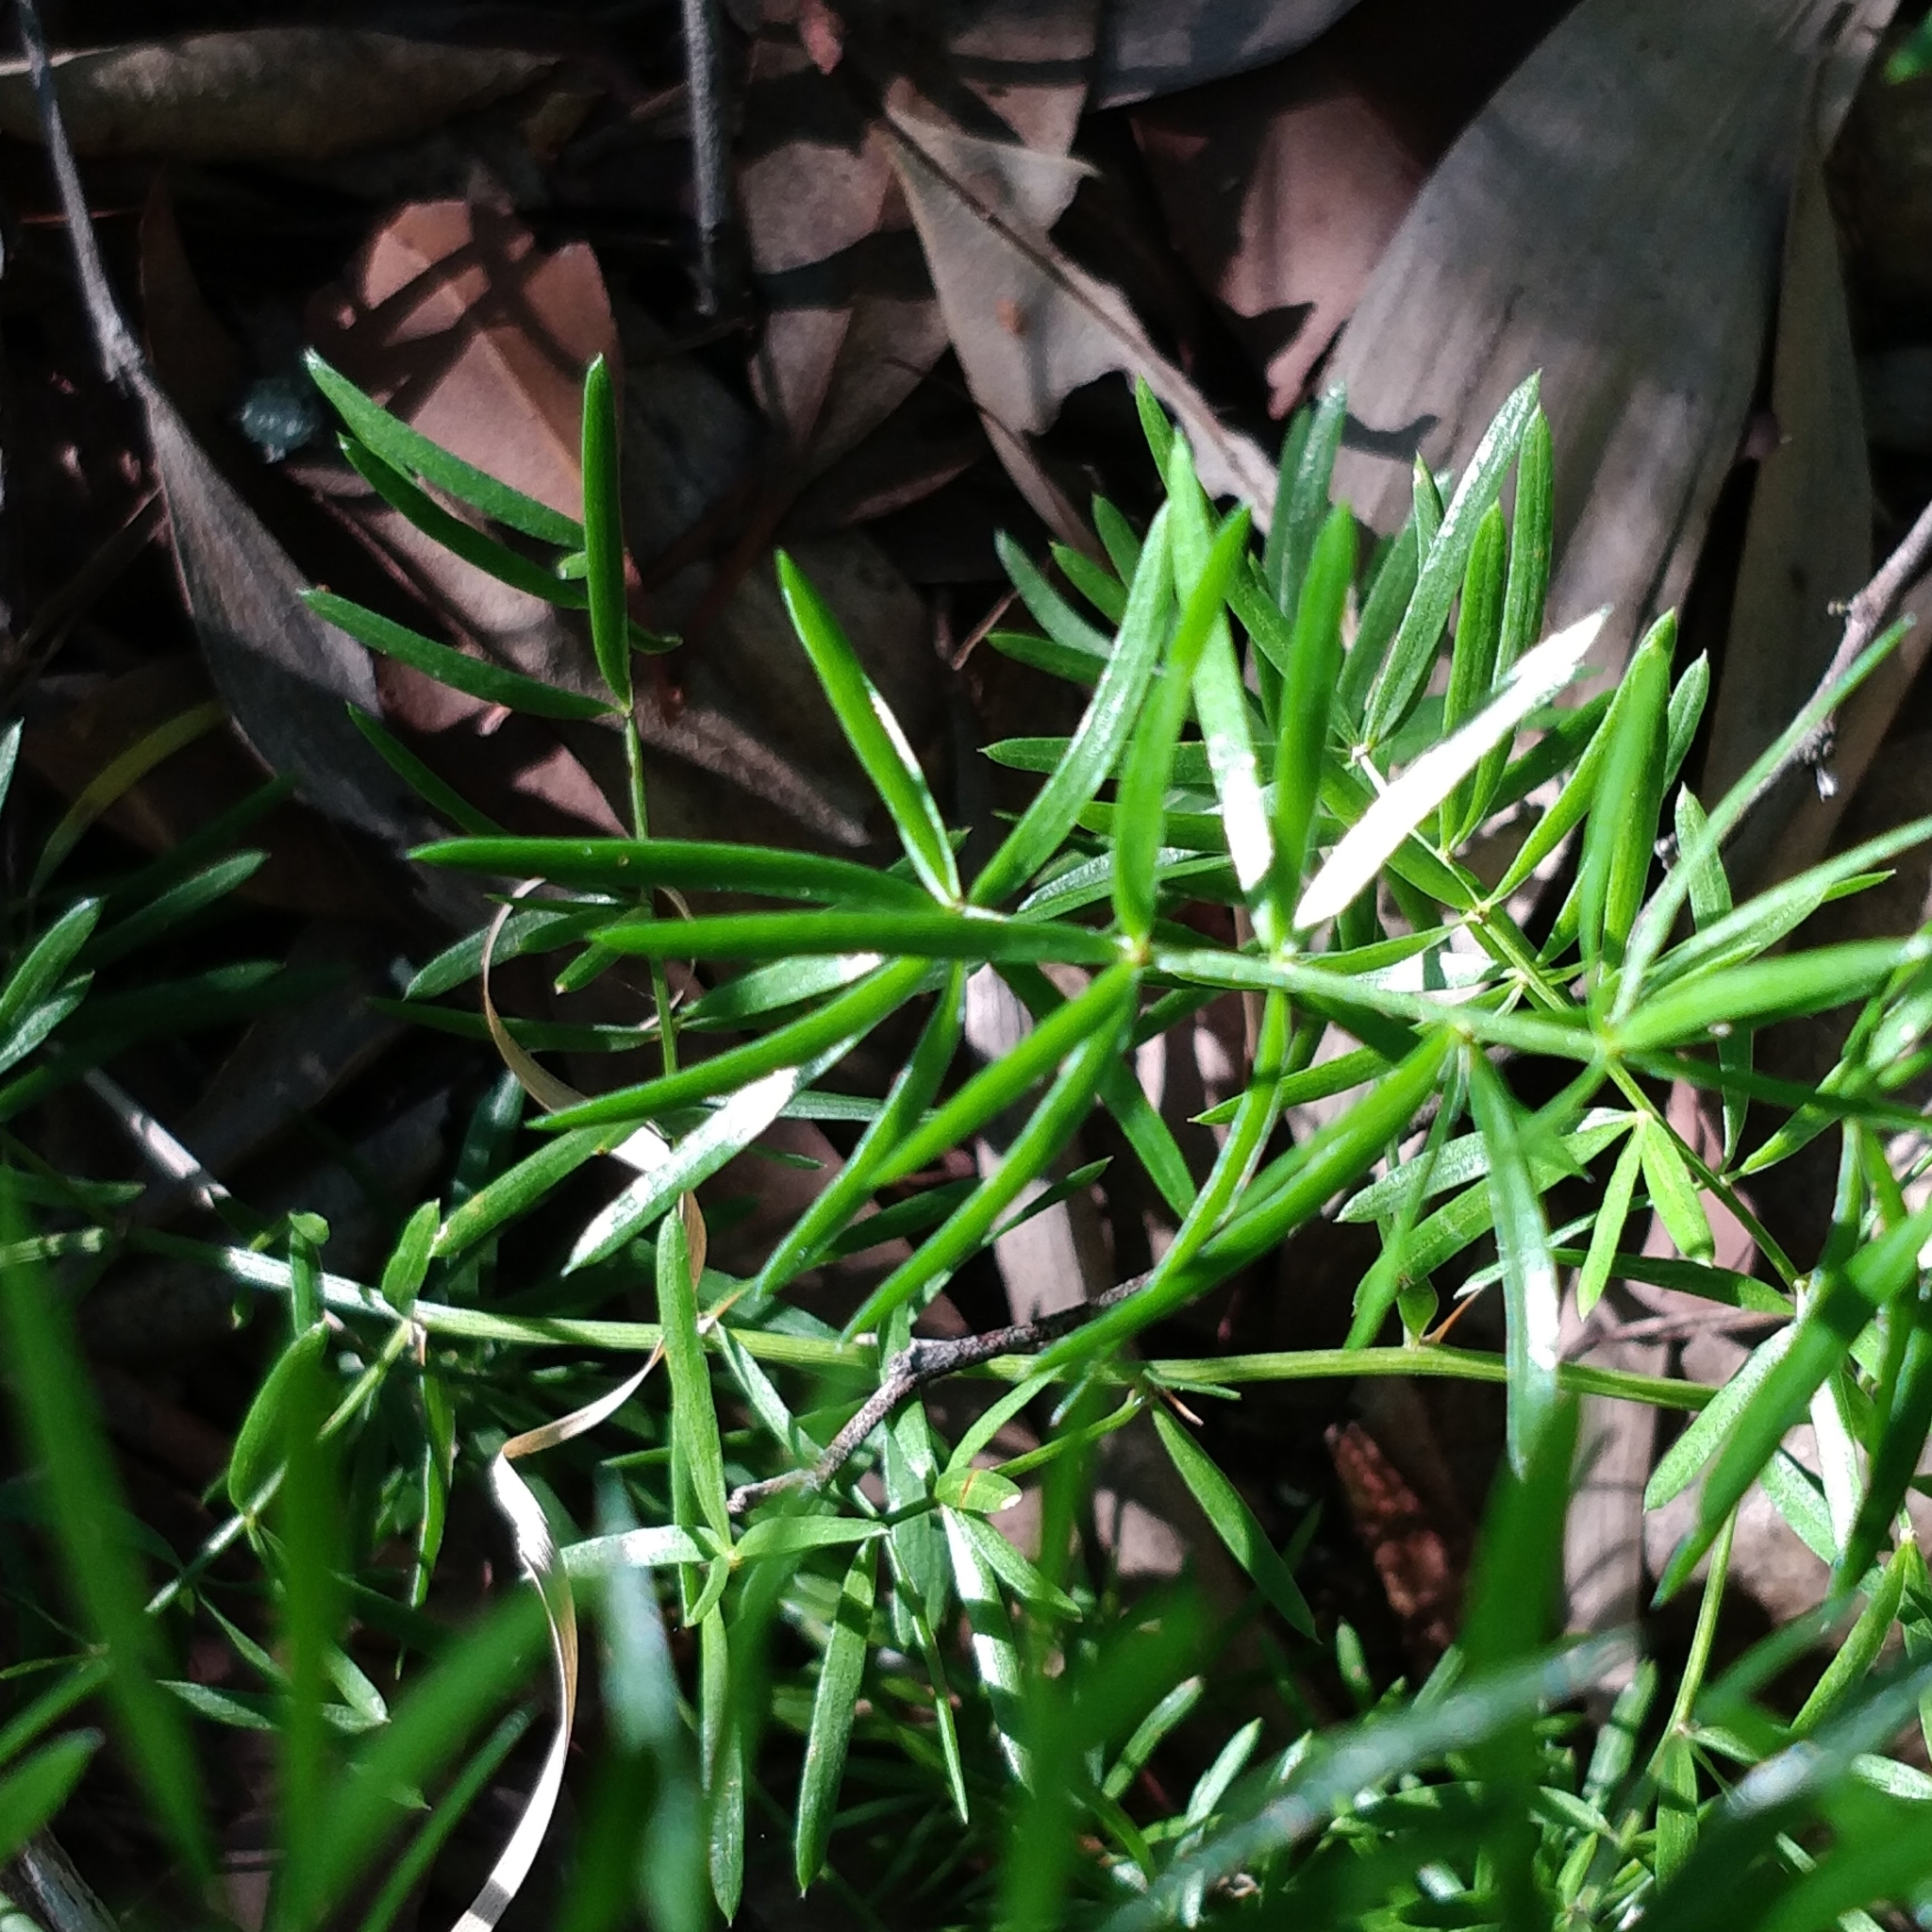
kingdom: Plantae
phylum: Tracheophyta
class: Liliopsida
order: Asparagales
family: Asparagaceae
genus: Asparagus
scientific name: Asparagus aethiopicus
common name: Sprenger's asparagus fern
